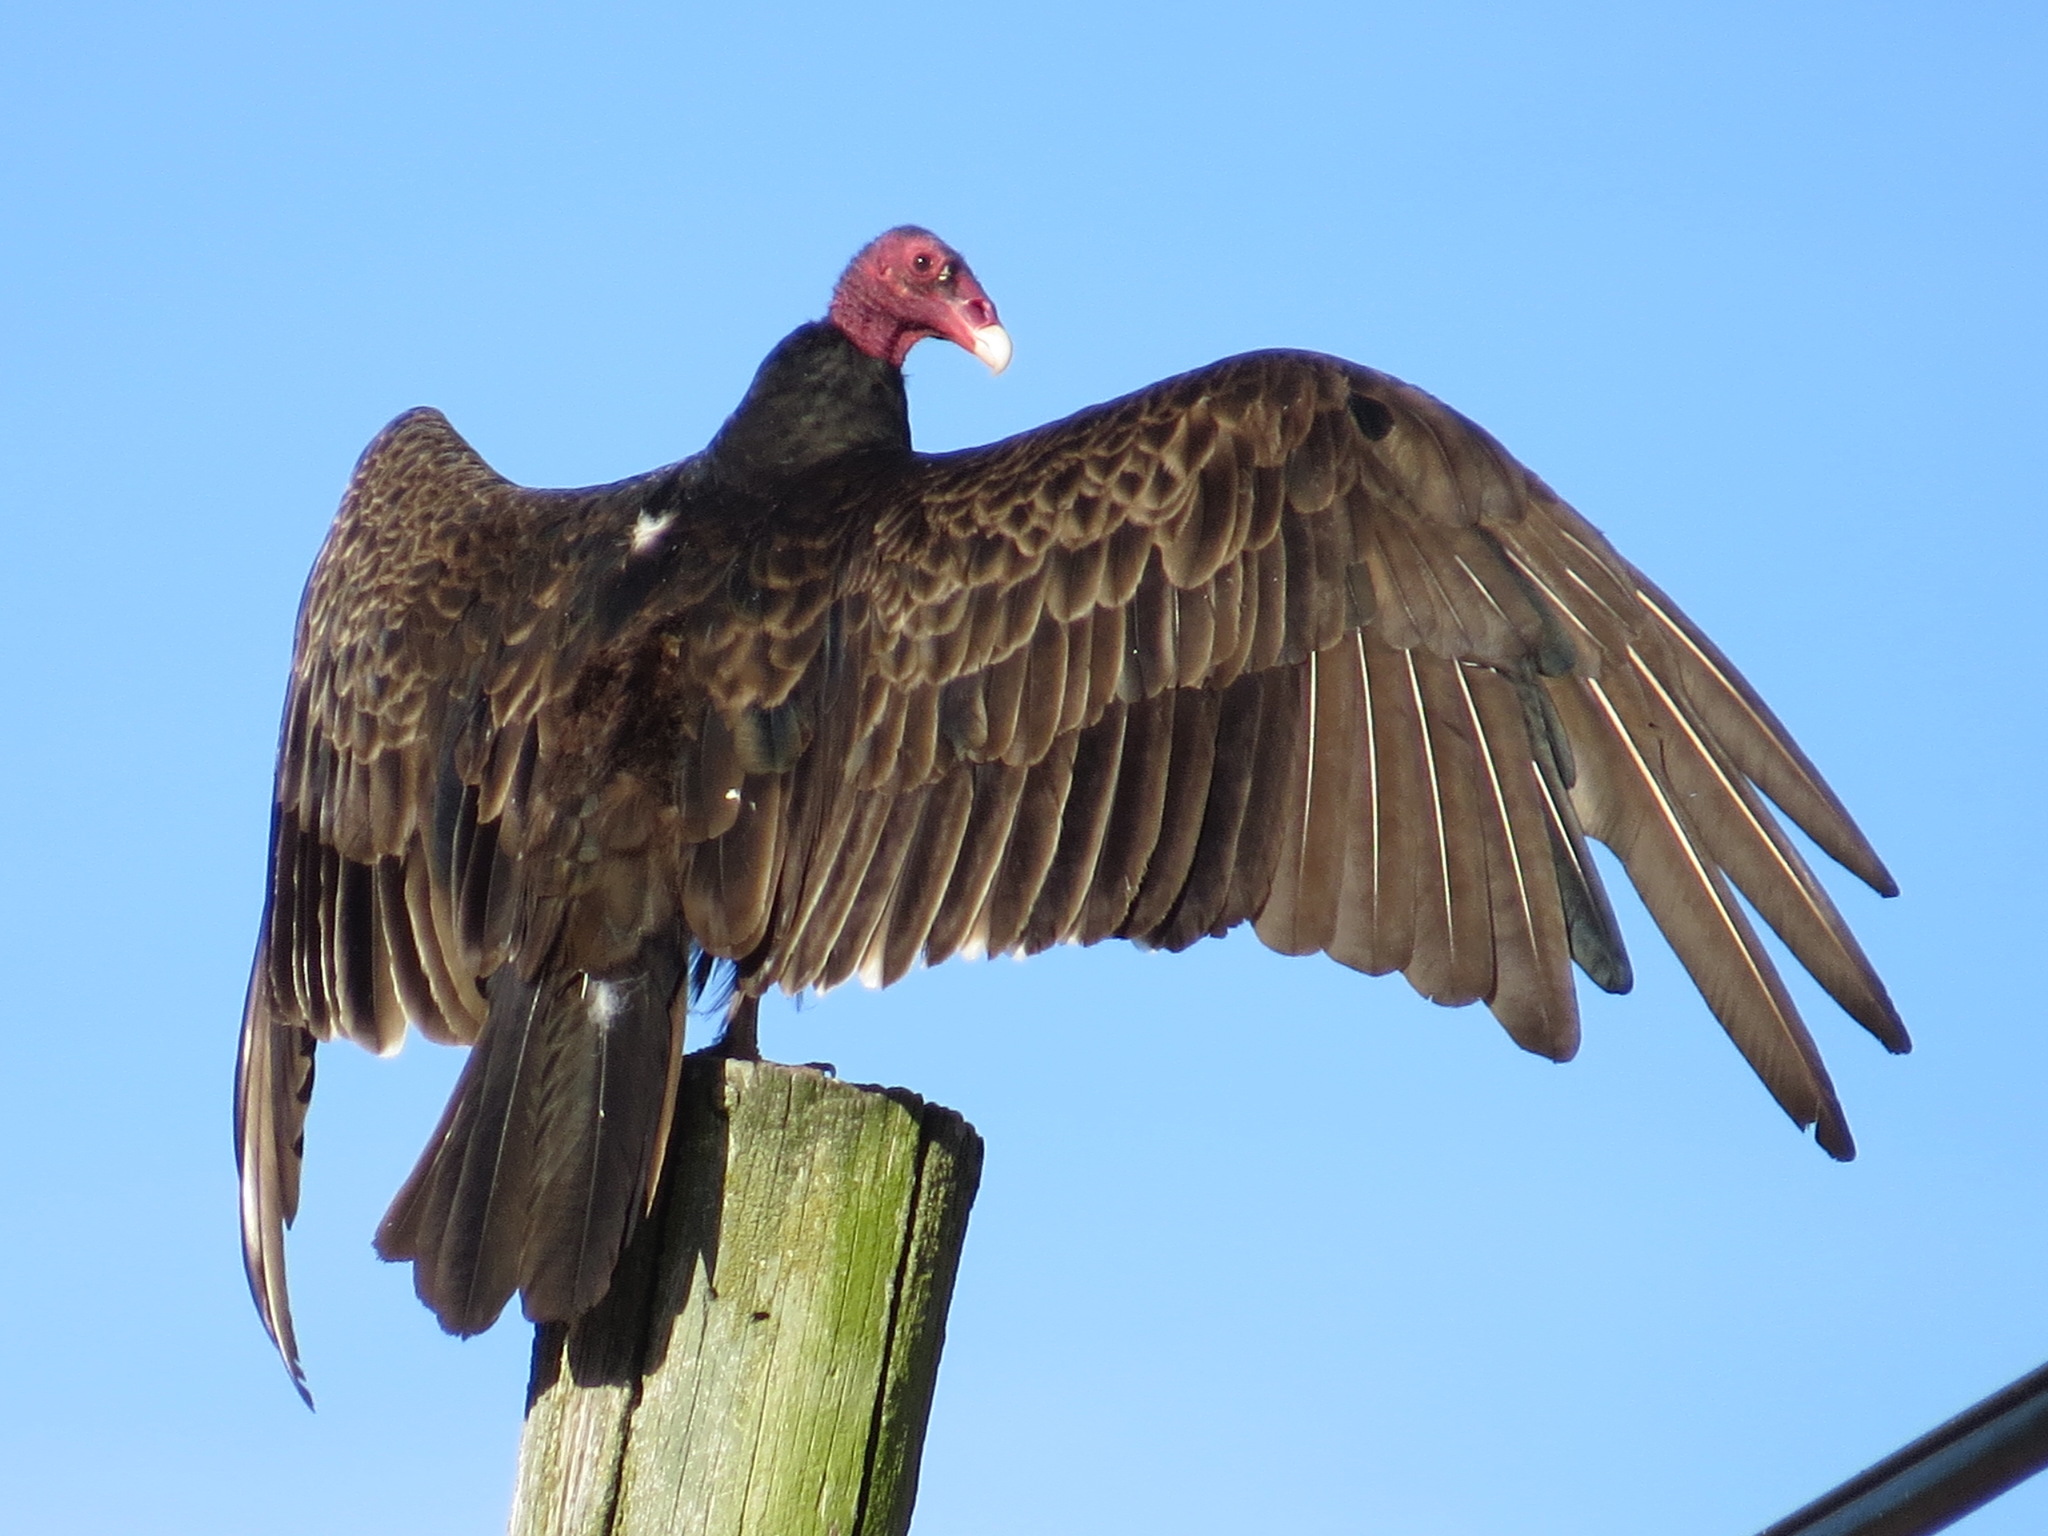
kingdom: Animalia
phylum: Chordata
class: Aves
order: Accipitriformes
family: Cathartidae
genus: Cathartes
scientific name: Cathartes aura
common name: Turkey vulture
